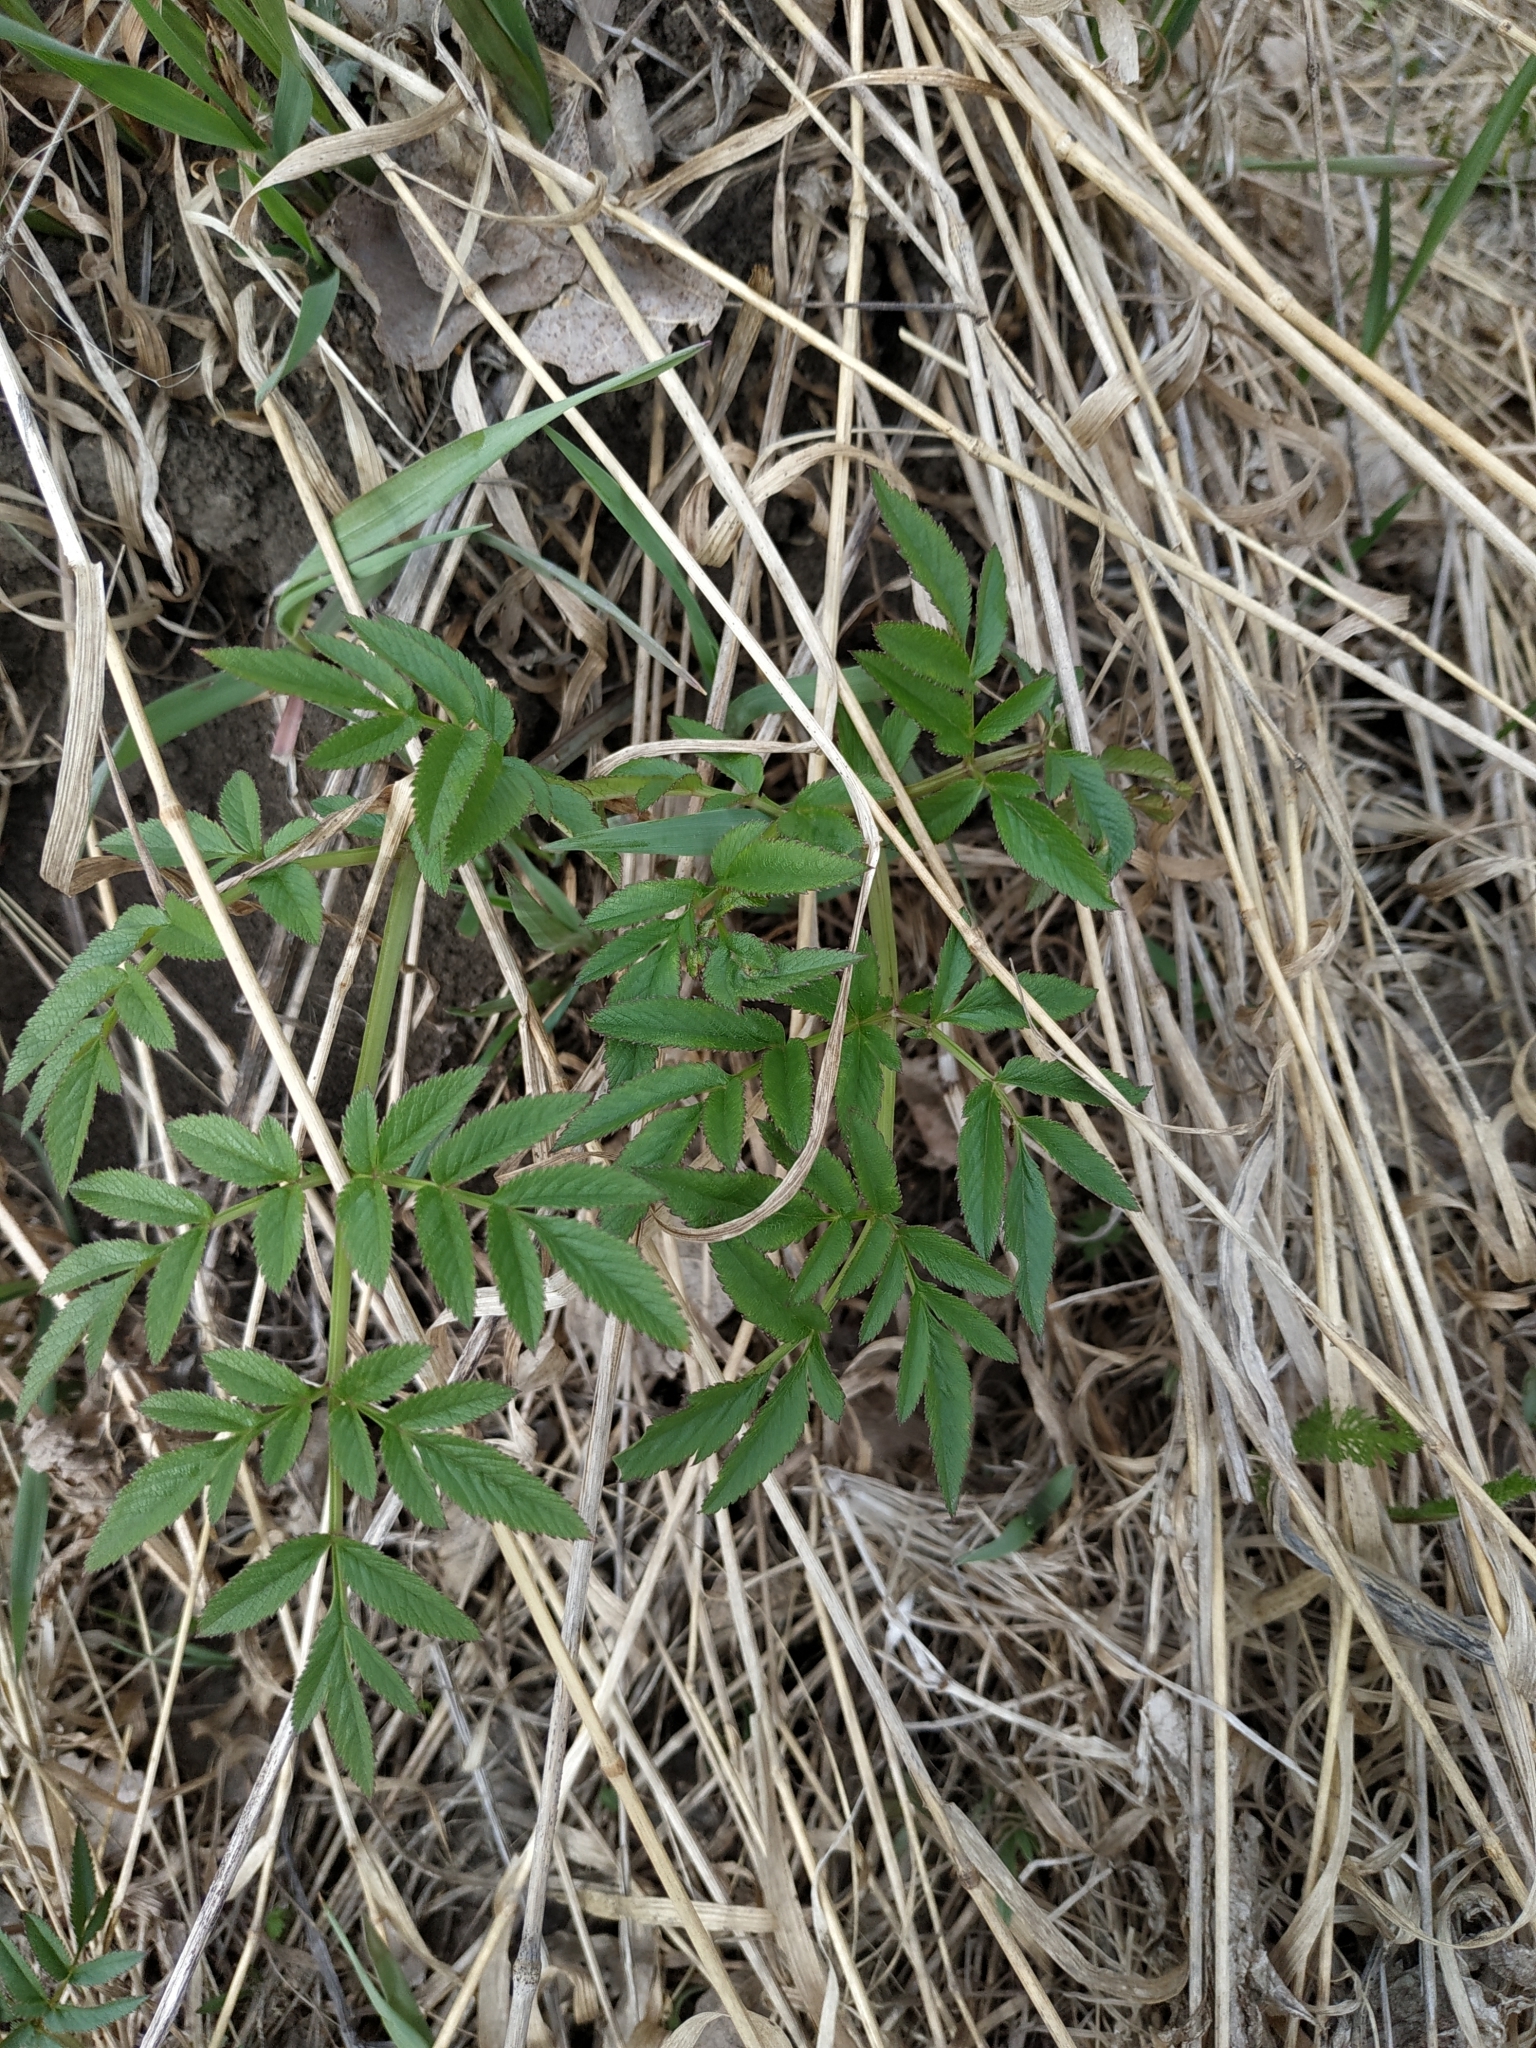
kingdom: Plantae
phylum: Tracheophyta
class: Magnoliopsida
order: Apiales
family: Apiaceae
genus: Angelica
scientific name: Angelica sylvestris
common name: Wild angelica
